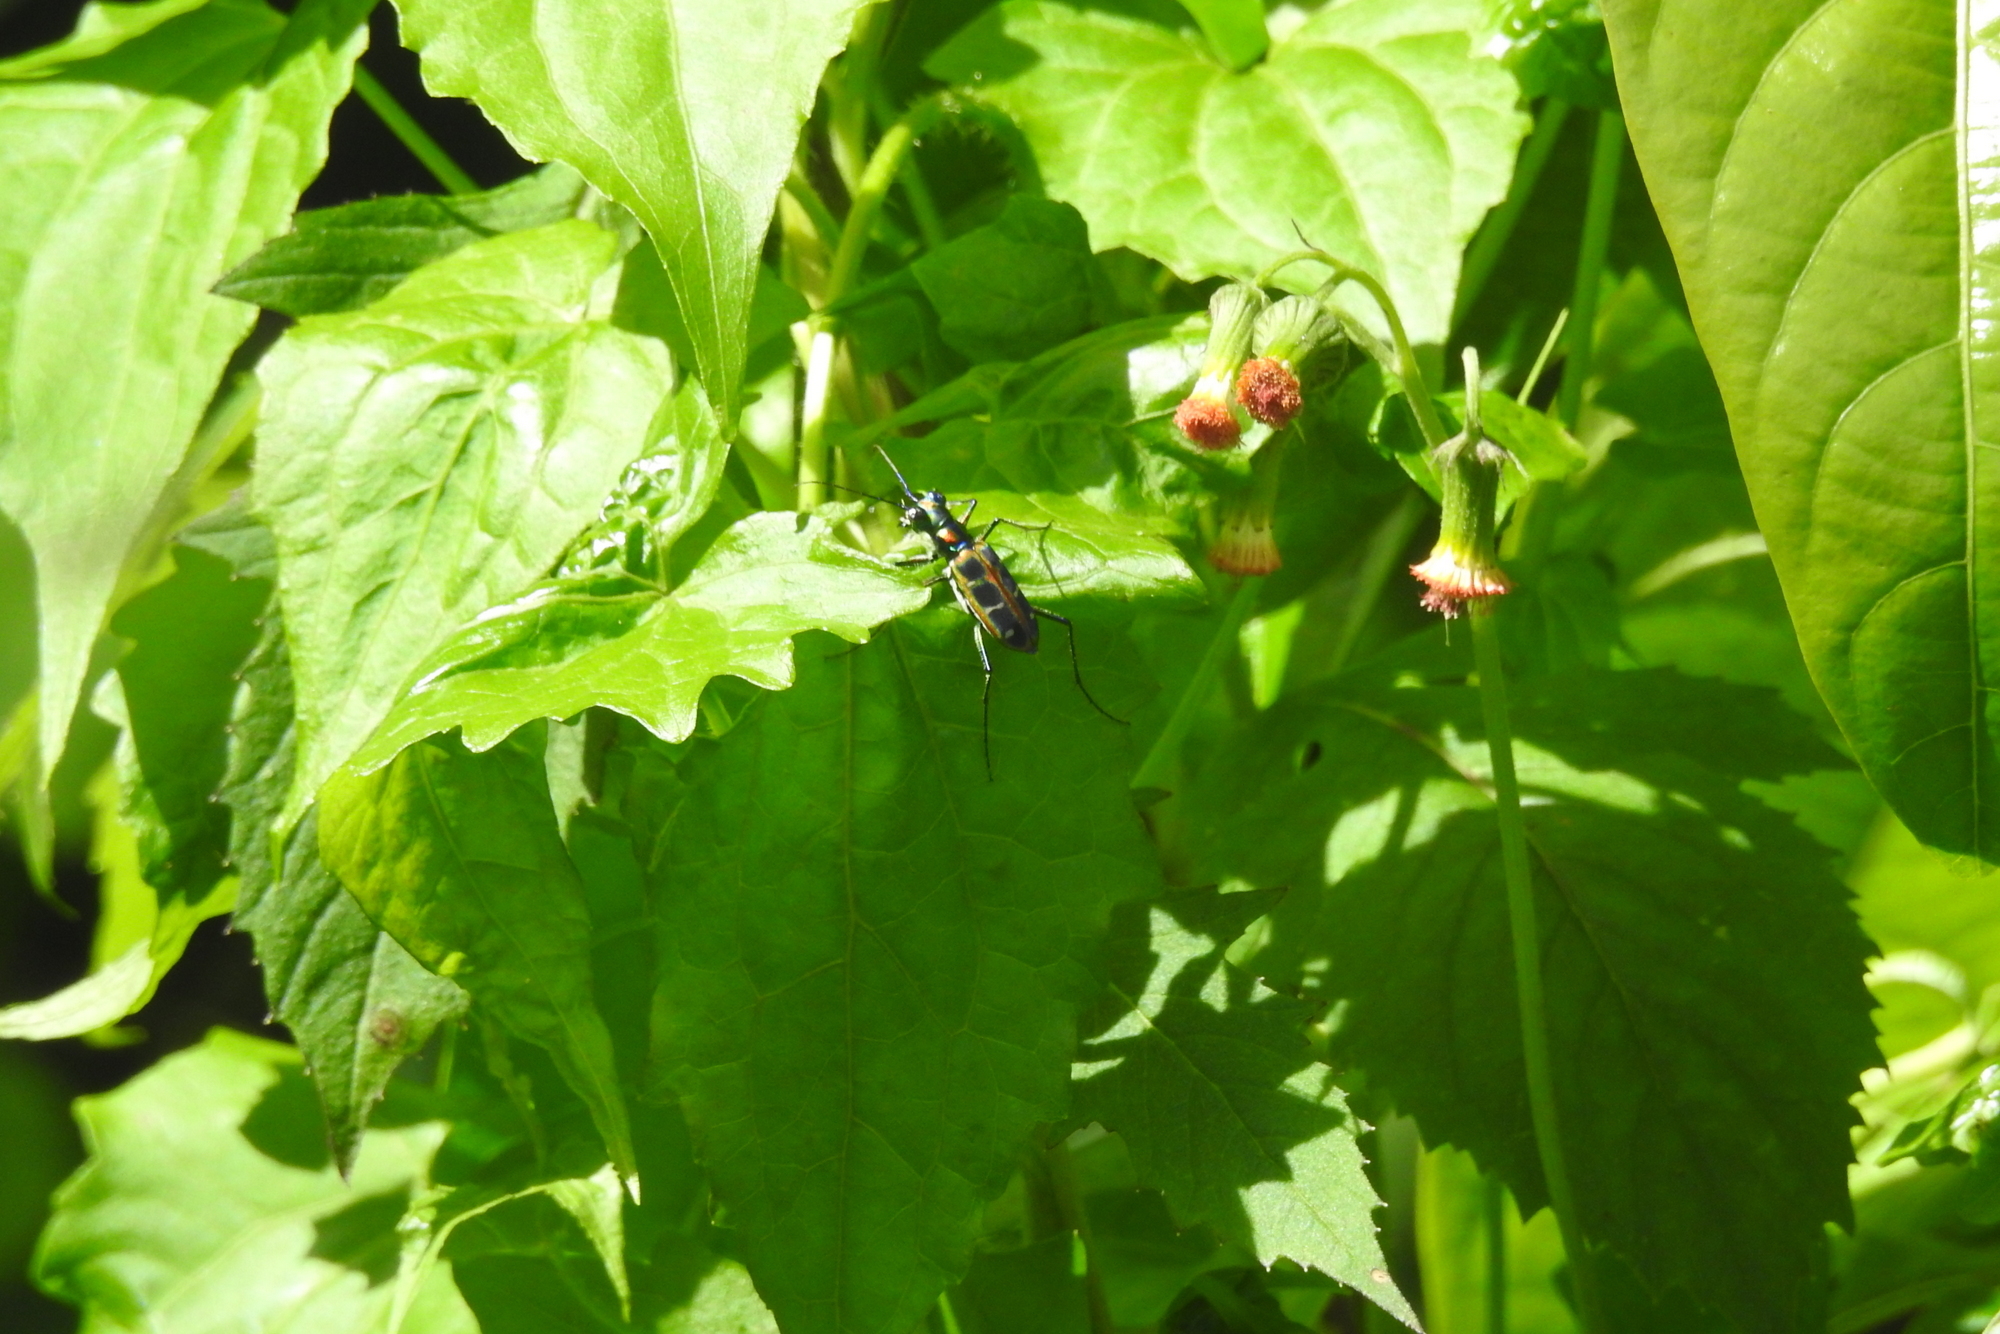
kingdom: Animalia
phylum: Arthropoda
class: Insecta
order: Coleoptera
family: Carabidae
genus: Cicindela
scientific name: Cicindela barmanica
